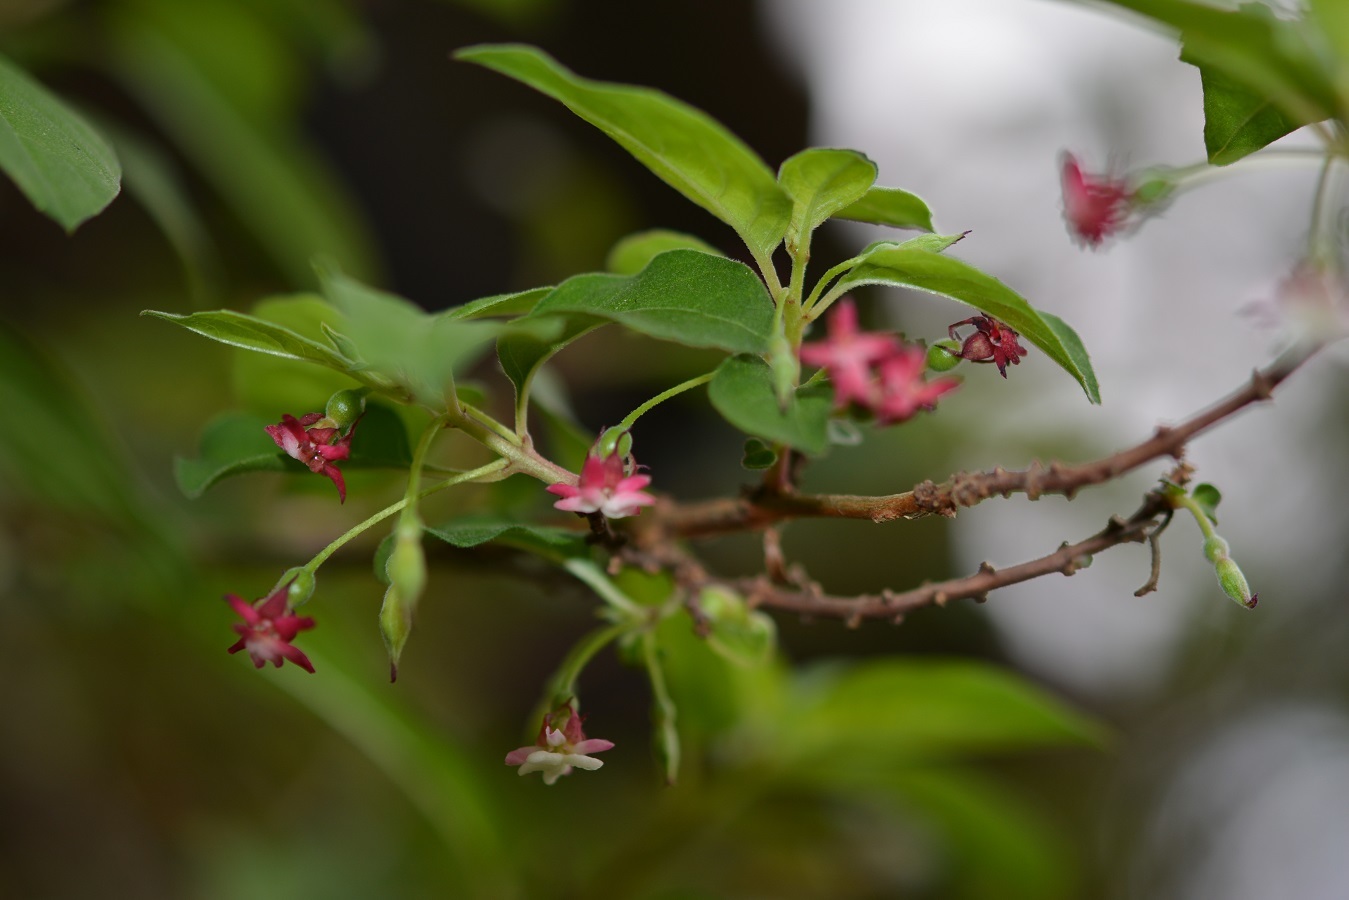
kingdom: Plantae
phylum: Tracheophyta
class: Magnoliopsida
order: Myrtales
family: Onagraceae
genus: Fuchsia
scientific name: Fuchsia encliandra
